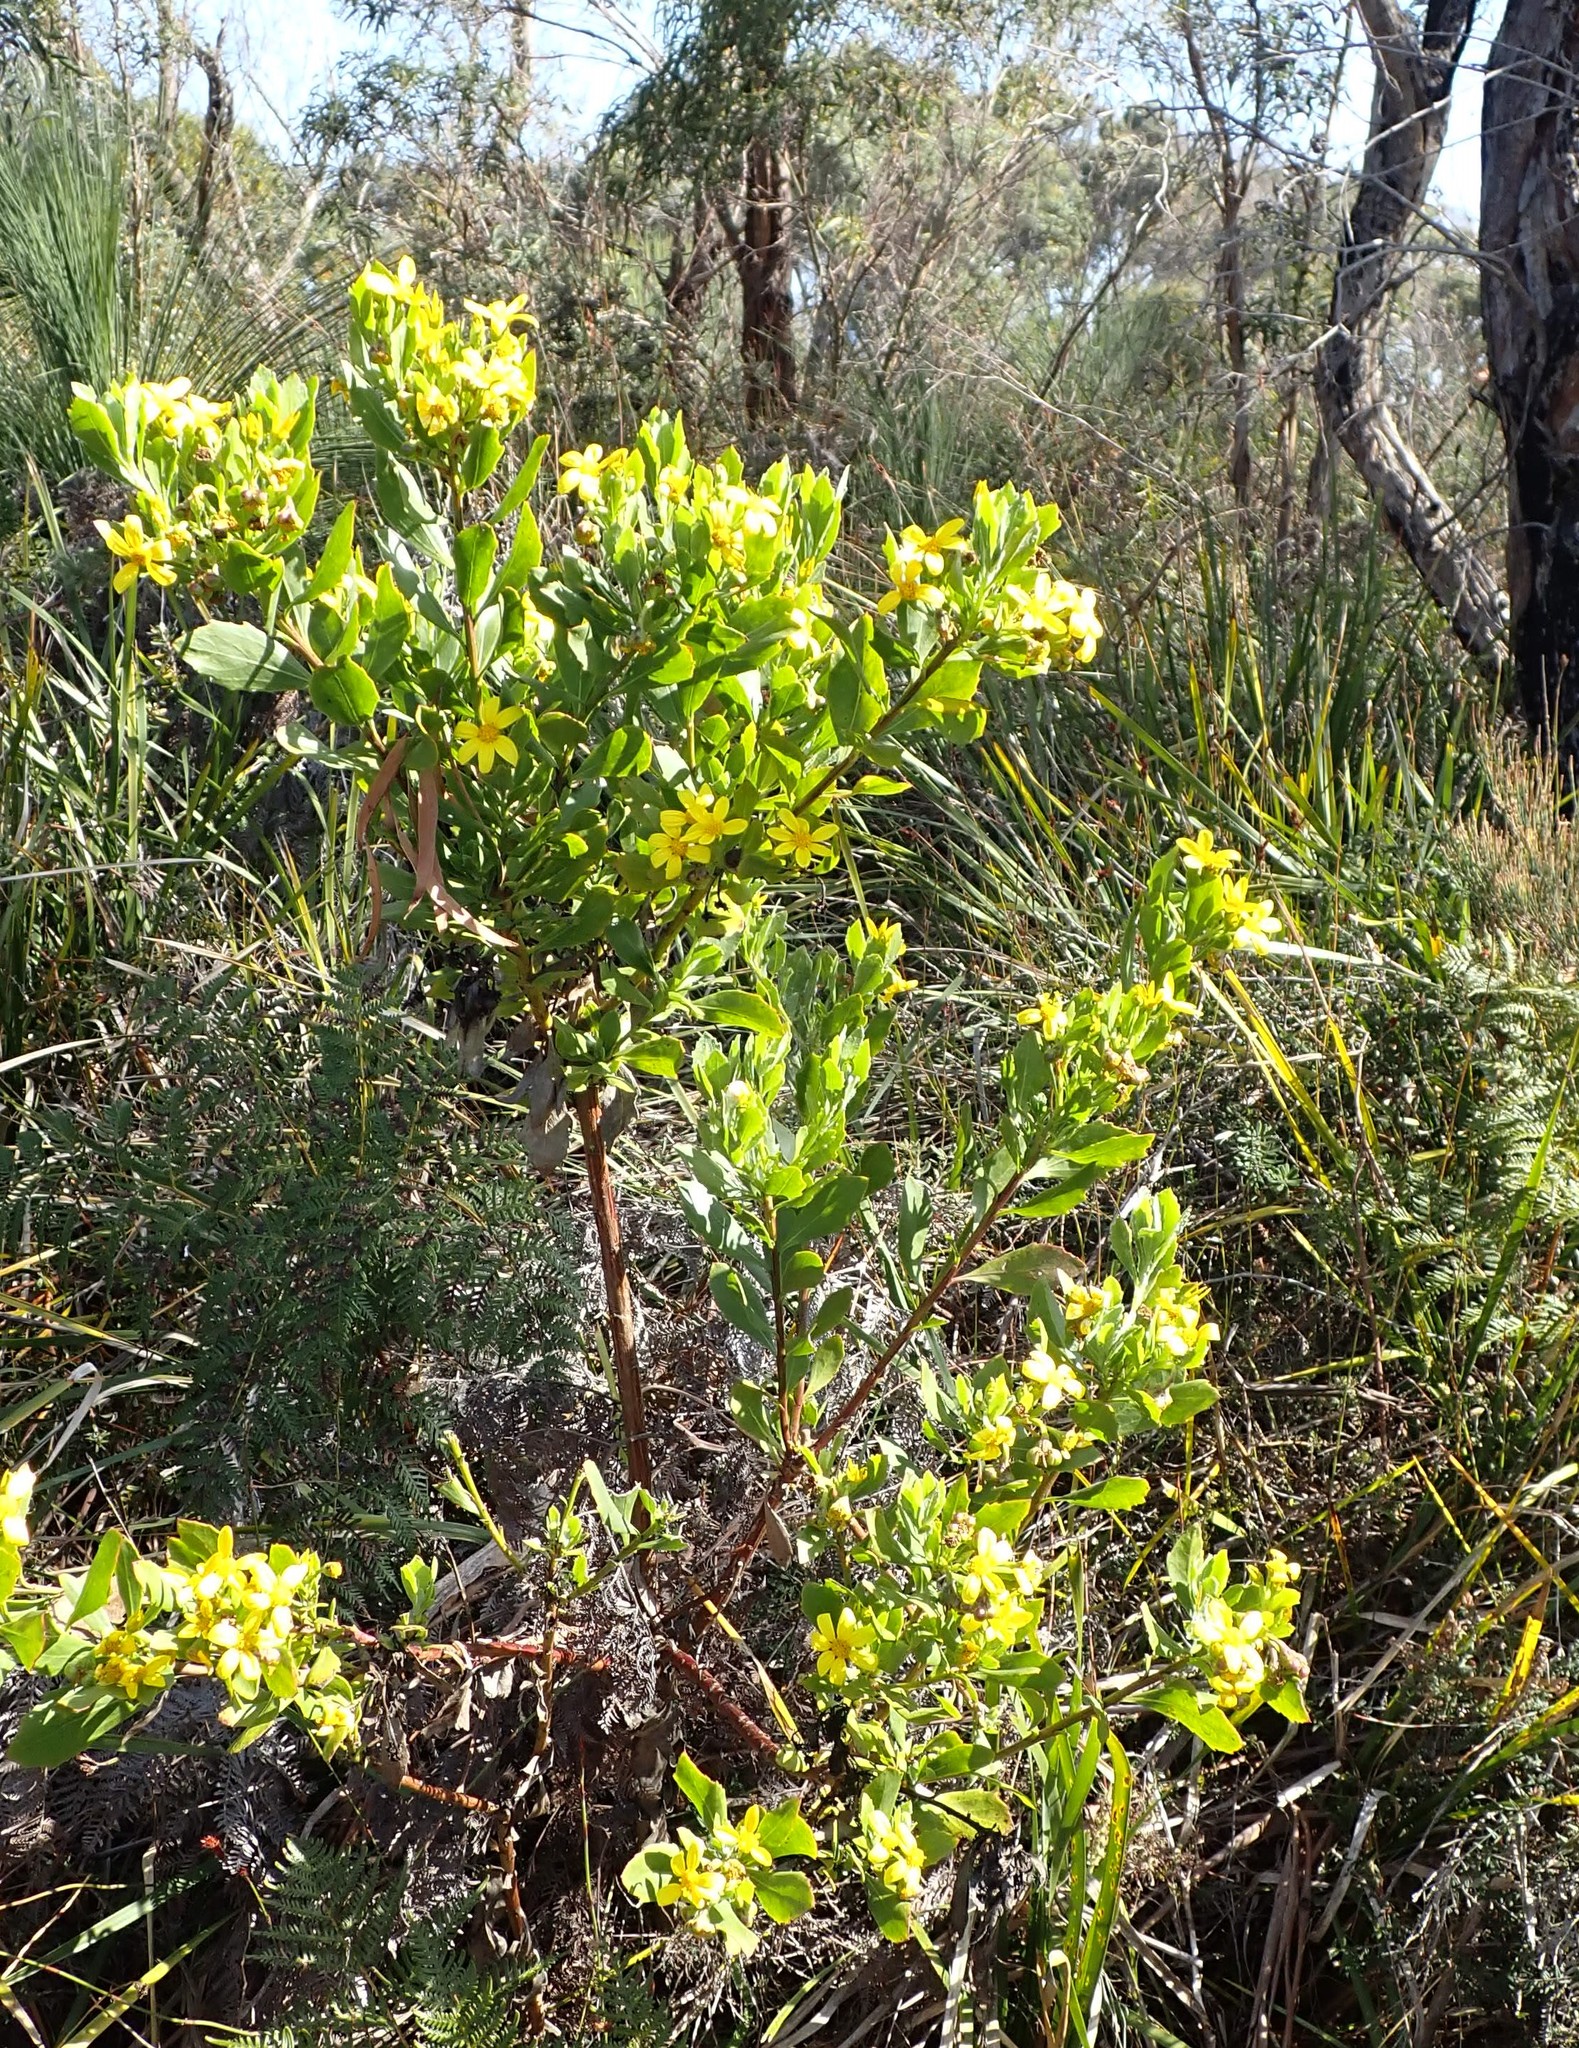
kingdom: Plantae
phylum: Tracheophyta
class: Magnoliopsida
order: Asterales
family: Asteraceae
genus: Osteospermum
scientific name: Osteospermum moniliferum
